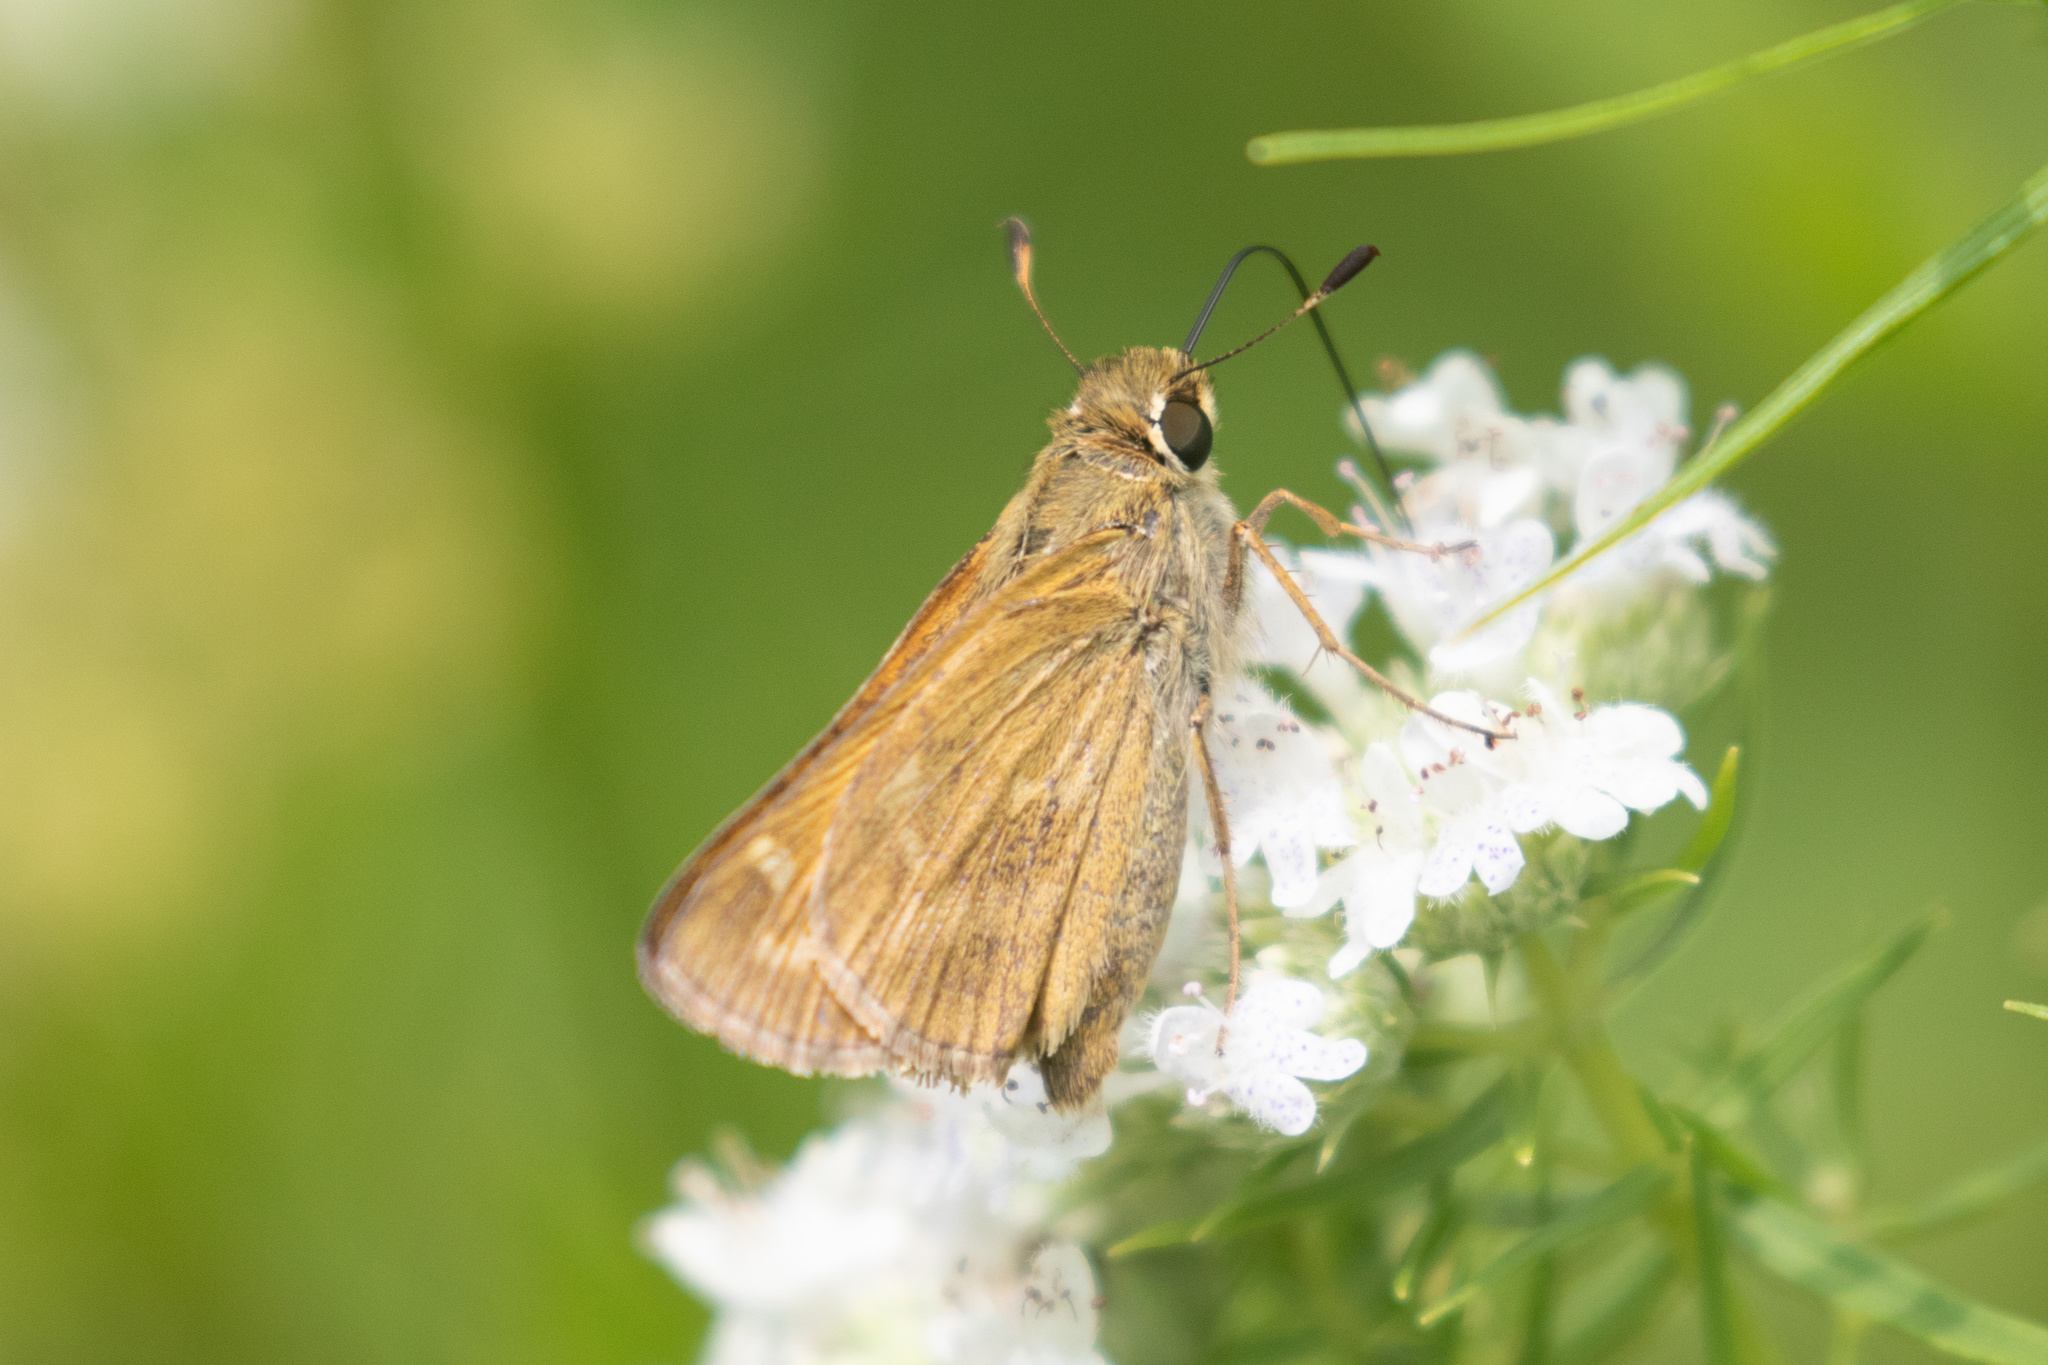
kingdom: Animalia
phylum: Arthropoda
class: Insecta
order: Lepidoptera
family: Hesperiidae
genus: Atalopedes
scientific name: Atalopedes
